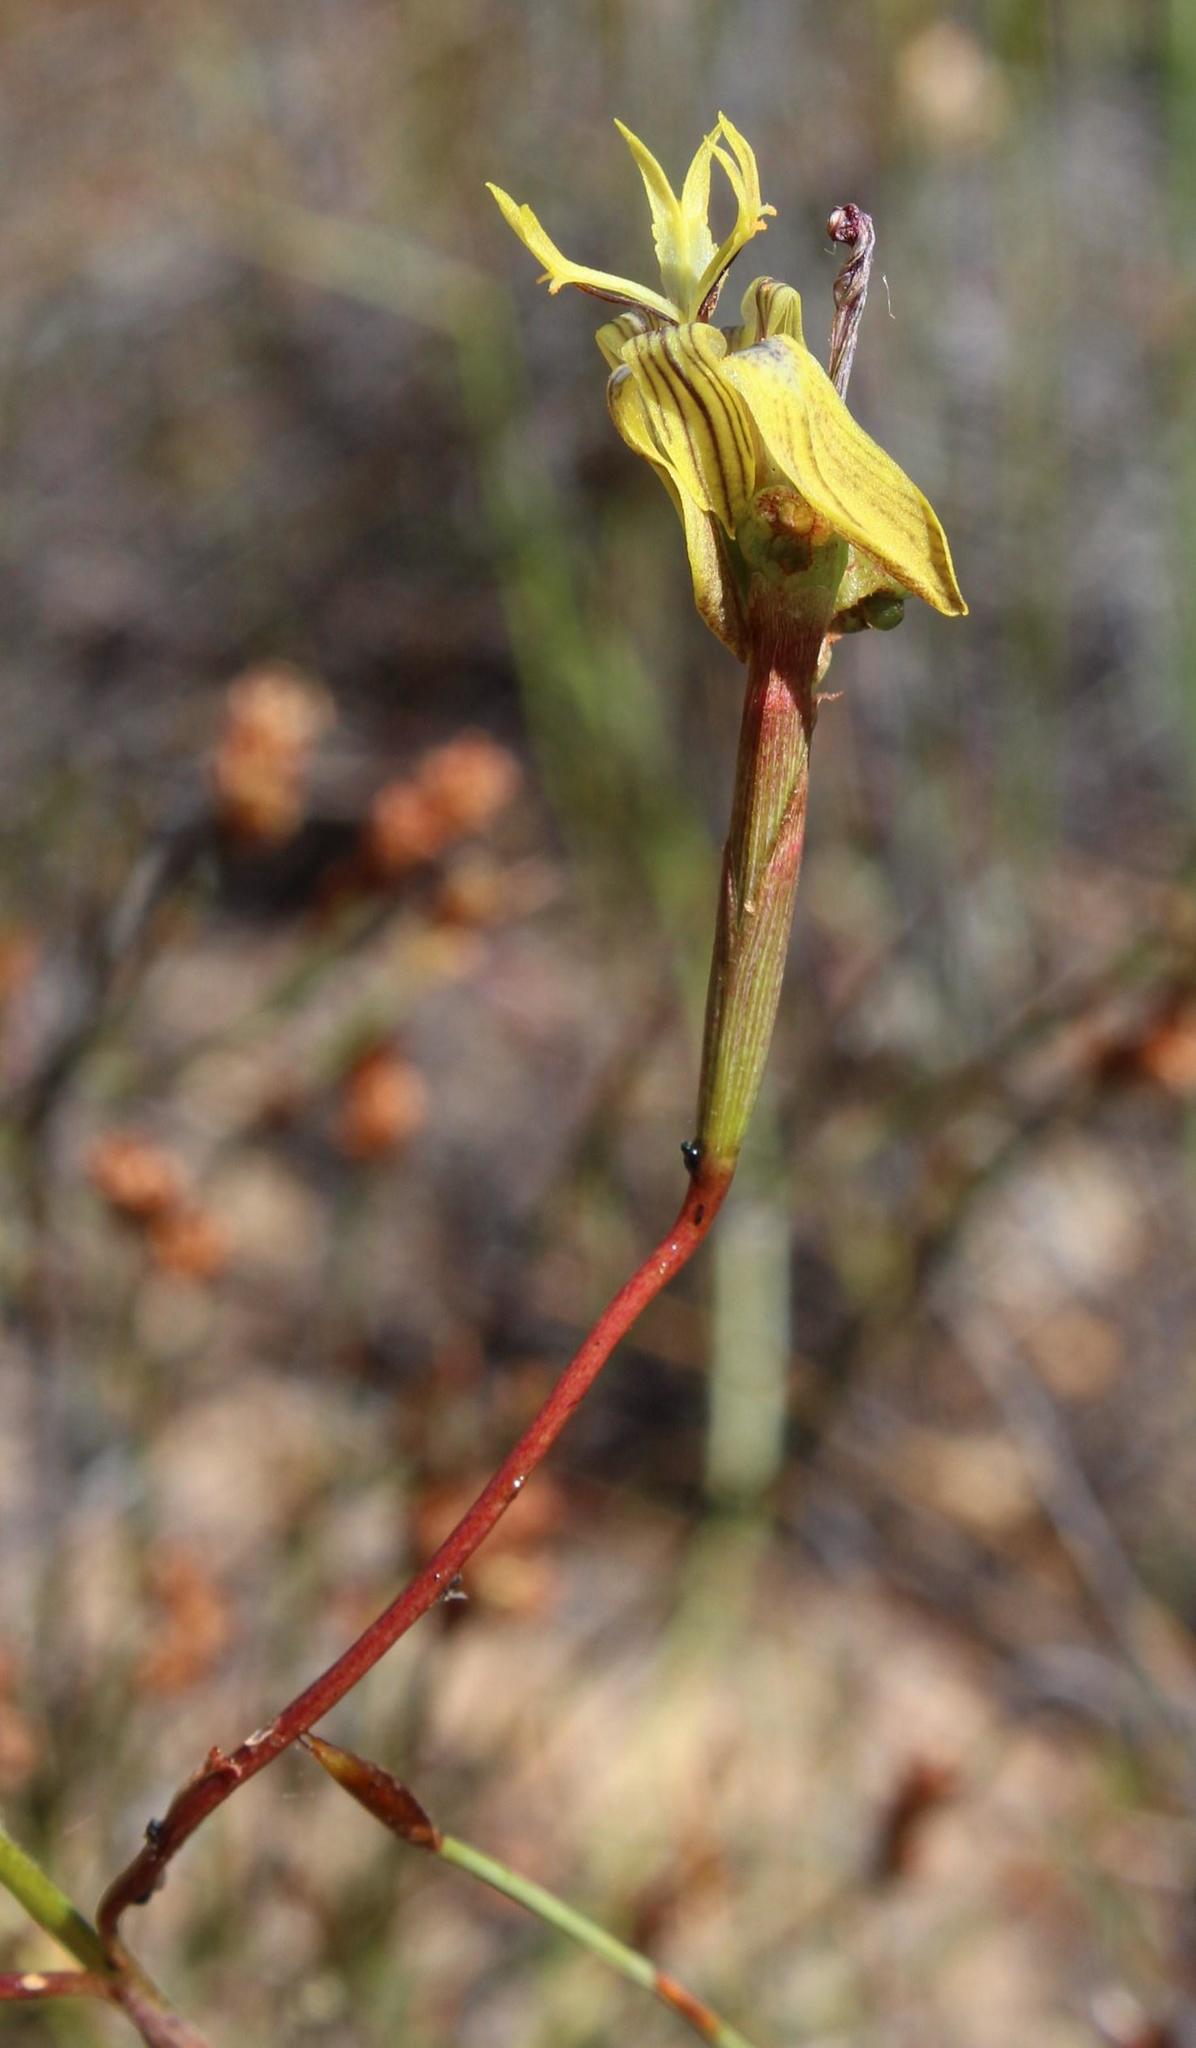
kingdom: Plantae
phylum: Tracheophyta
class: Liliopsida
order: Asparagales
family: Iridaceae
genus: Moraea
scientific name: Moraea inconspicua
